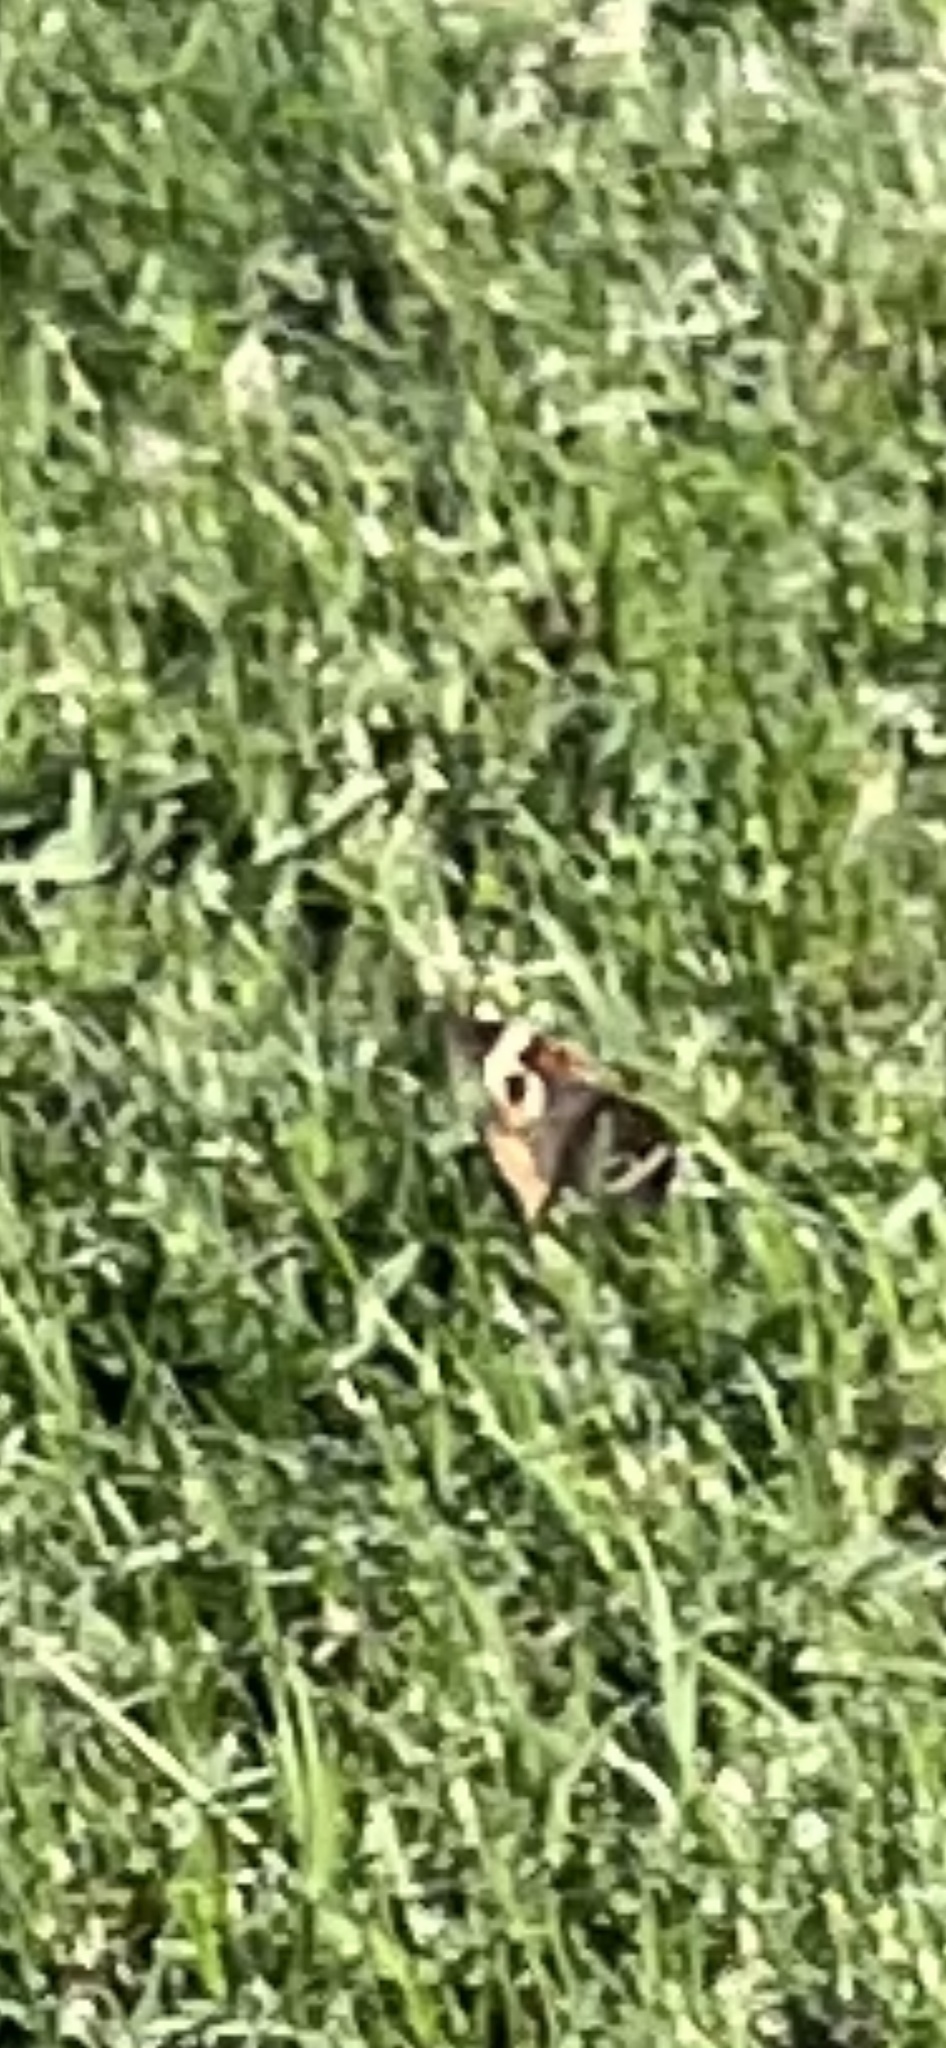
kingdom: Animalia
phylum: Arthropoda
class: Insecta
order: Lepidoptera
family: Nymphalidae
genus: Junonia
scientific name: Junonia coenia
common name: Common buckeye
